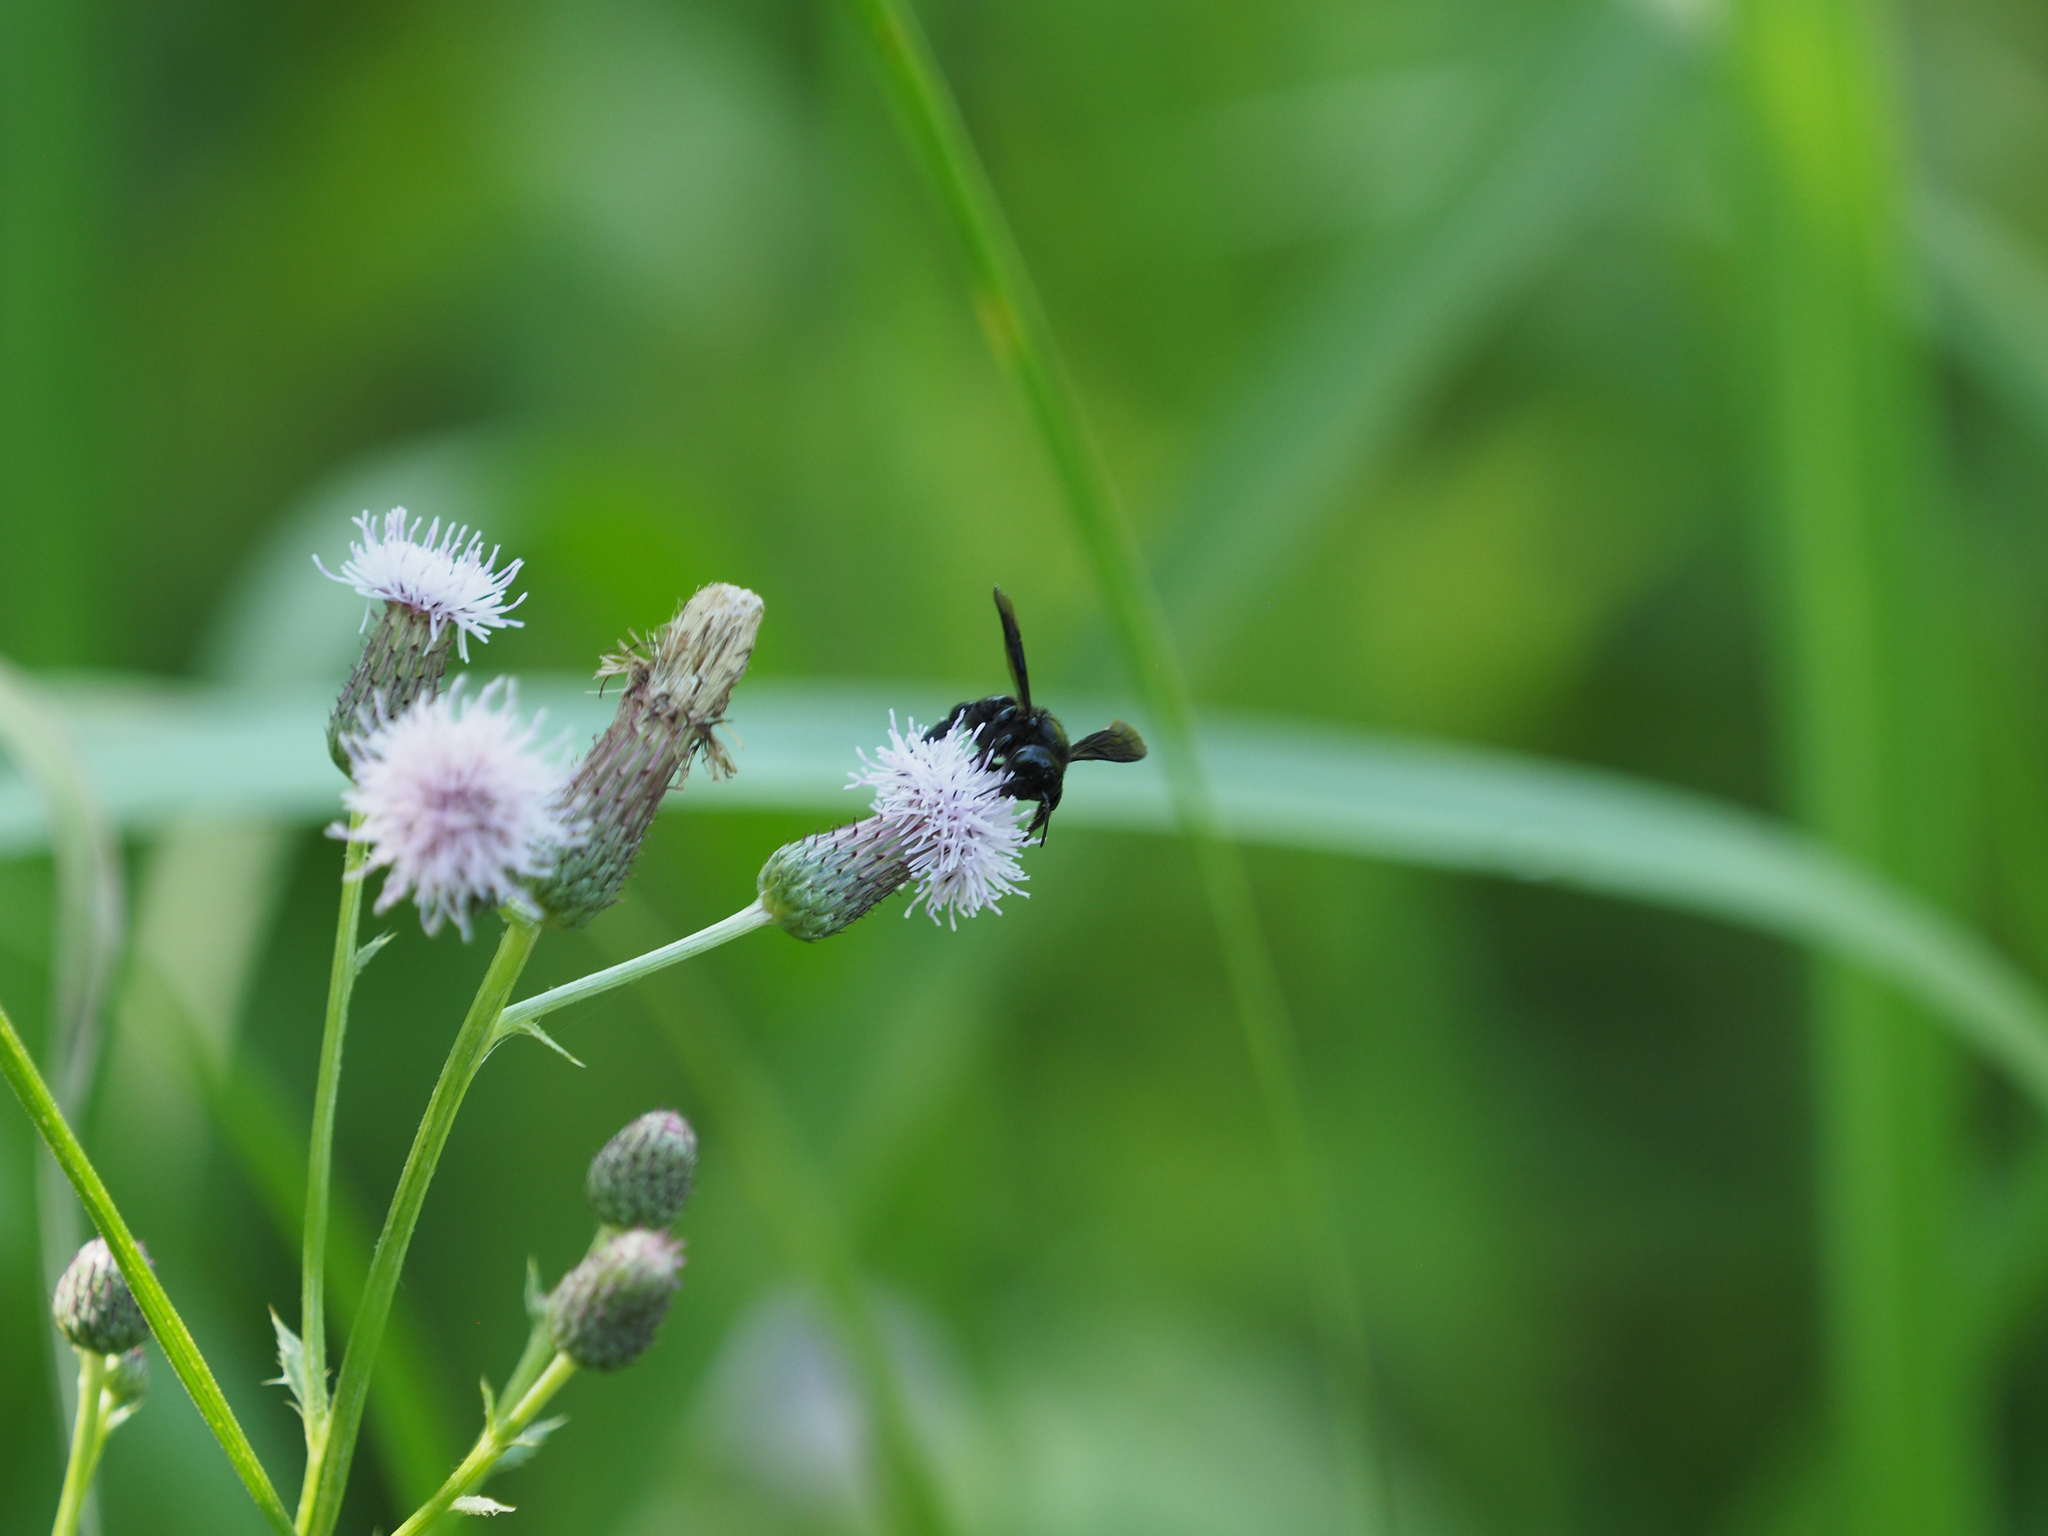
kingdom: Animalia
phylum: Arthropoda
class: Insecta
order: Hymenoptera
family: Megachilidae
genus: Megachile
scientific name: Megachile xylocopoides
